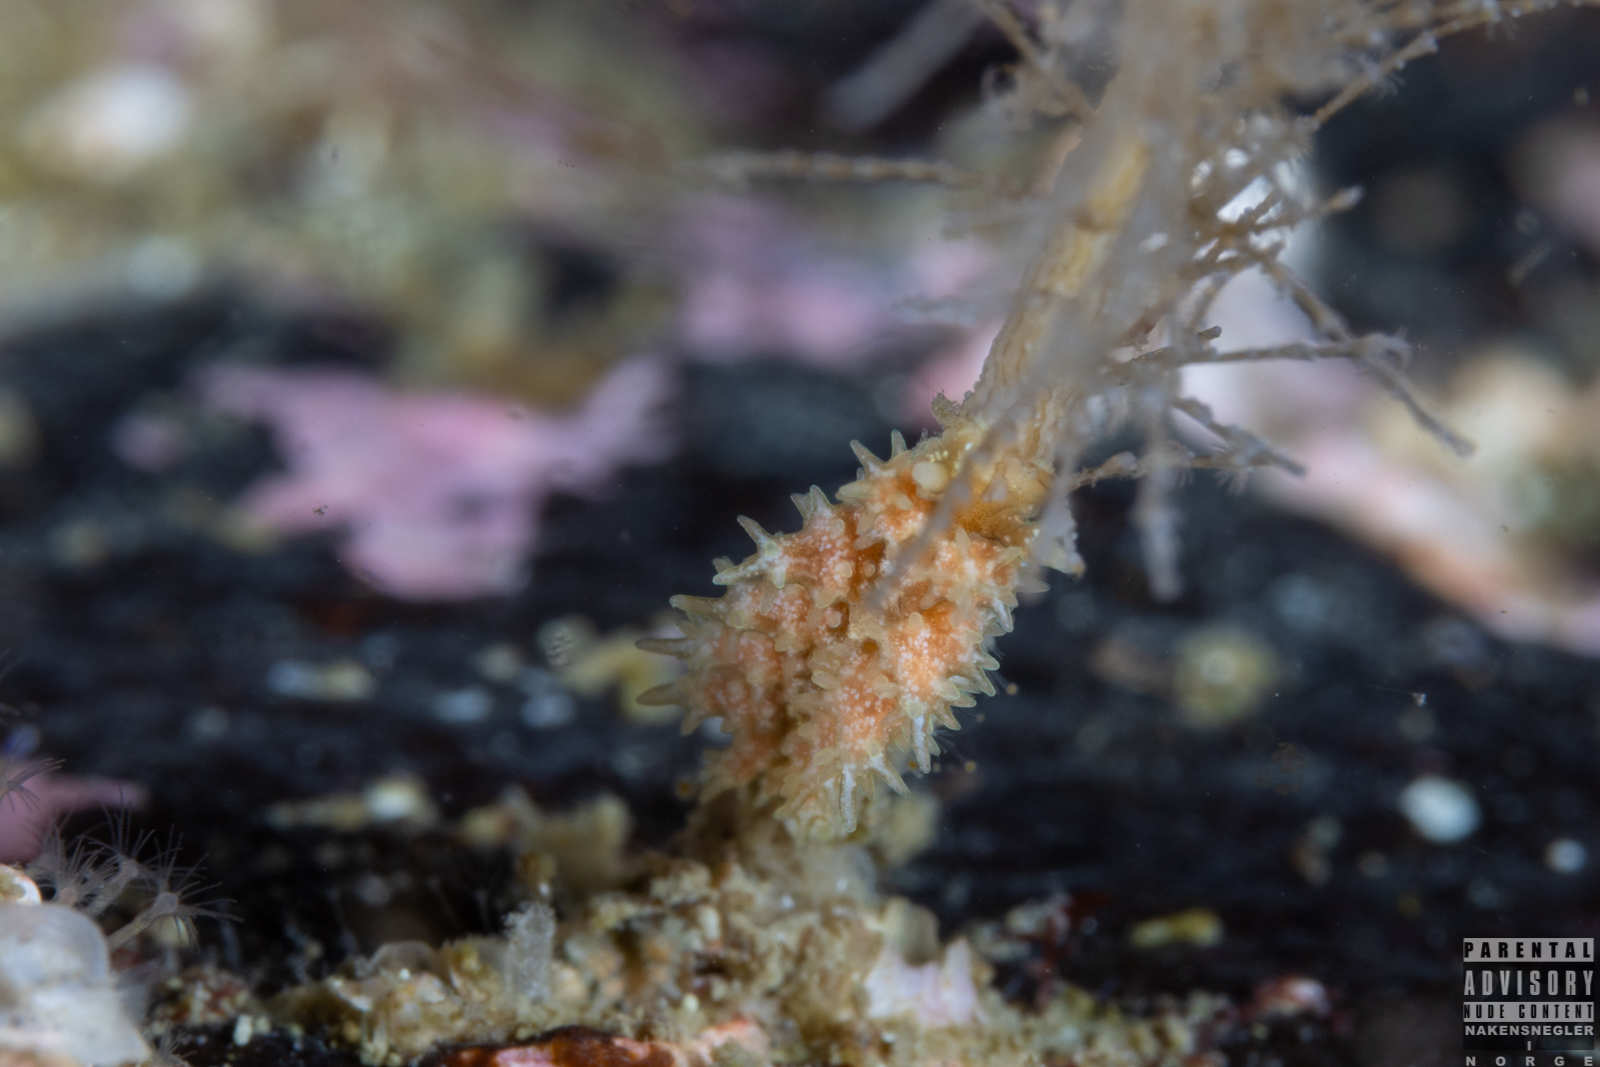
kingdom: Animalia
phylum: Mollusca
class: Gastropoda
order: Nudibranchia
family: Dotidae
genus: Doto
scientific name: Doto hystrix
